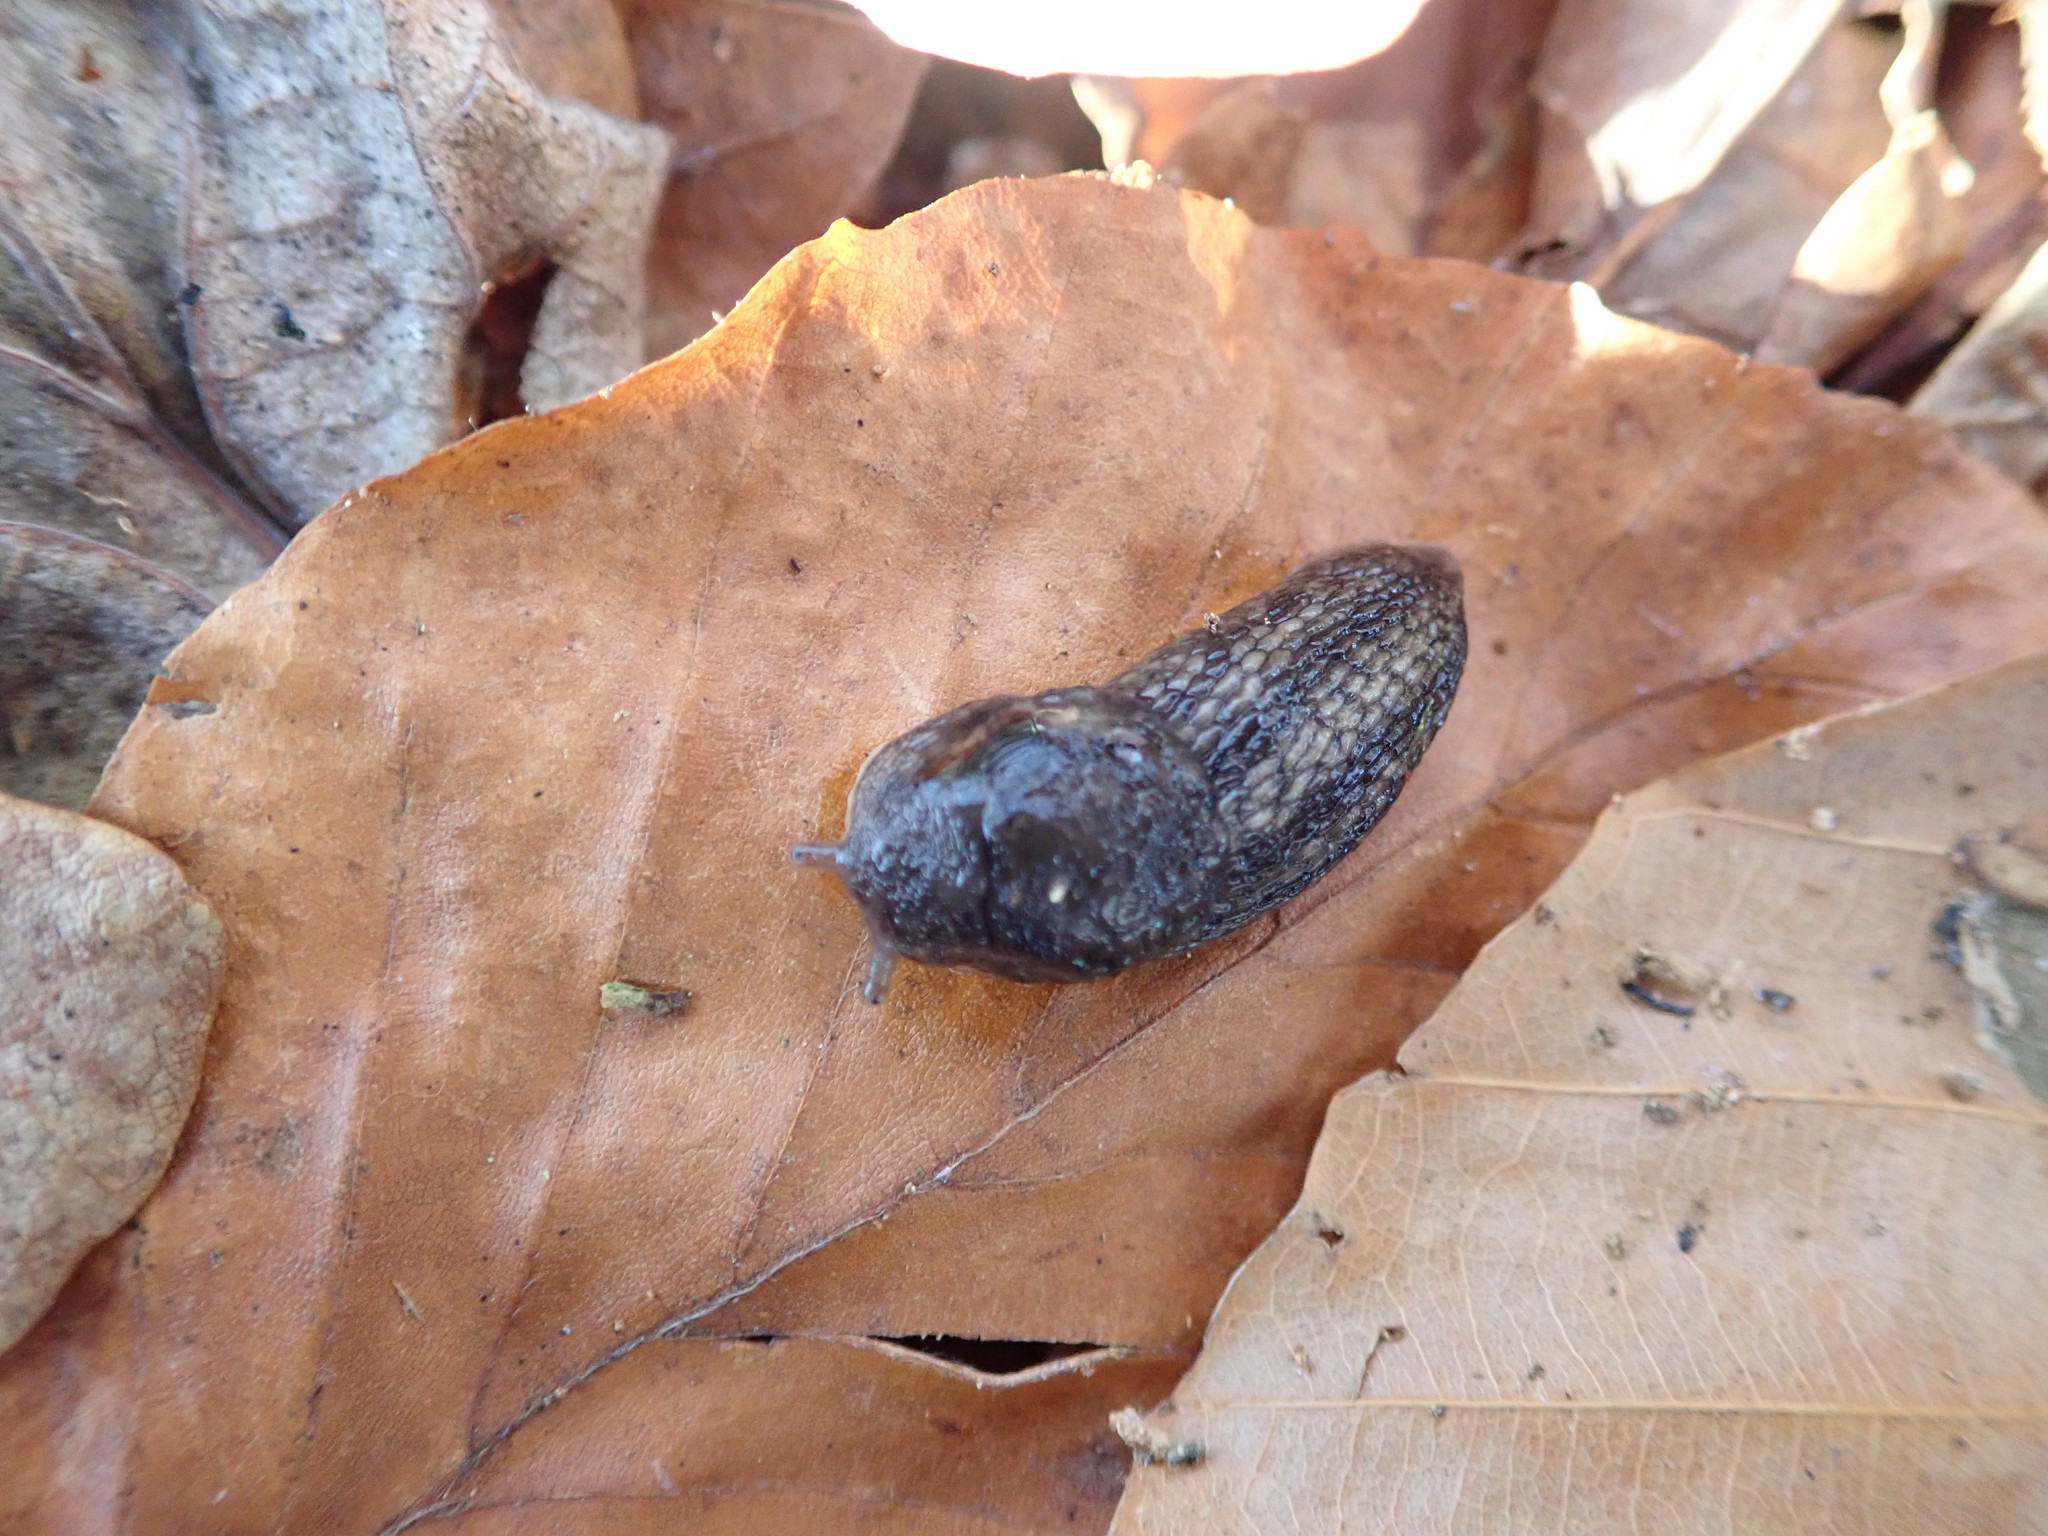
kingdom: Animalia
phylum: Mollusca
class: Gastropoda
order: Stylommatophora
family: Limacidae
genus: Limax
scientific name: Limax maximus
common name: Great grey slug
